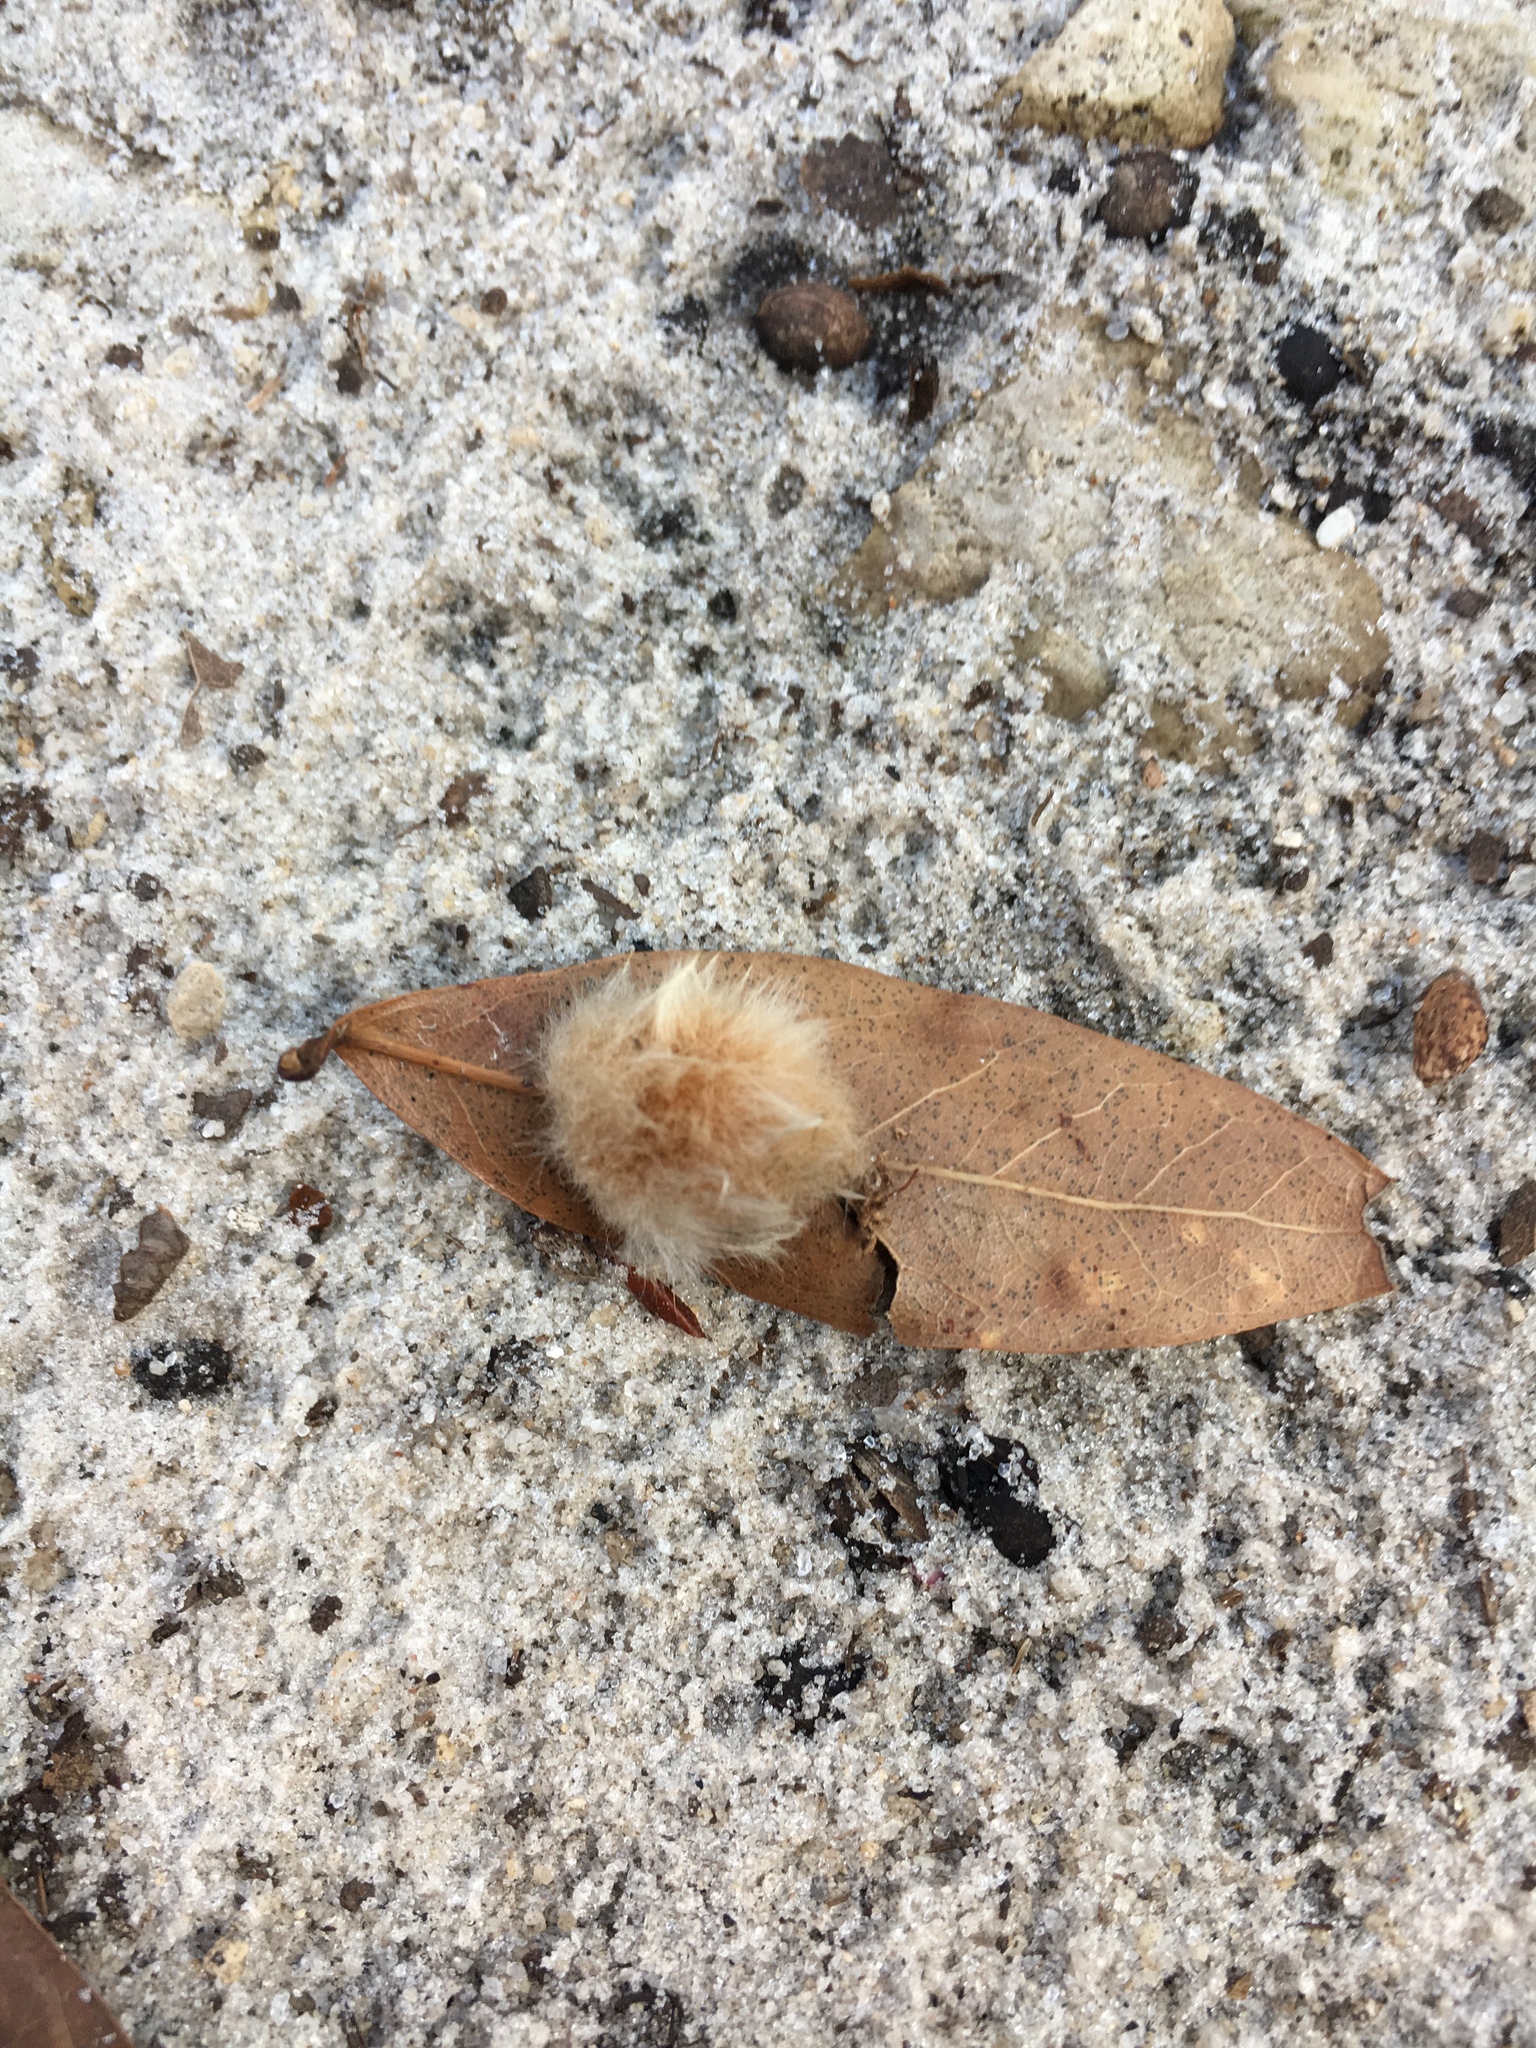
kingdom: Animalia
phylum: Arthropoda
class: Insecta
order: Hymenoptera
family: Cynipidae
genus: Andricus
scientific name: Andricus Druon quercuslanigerum
